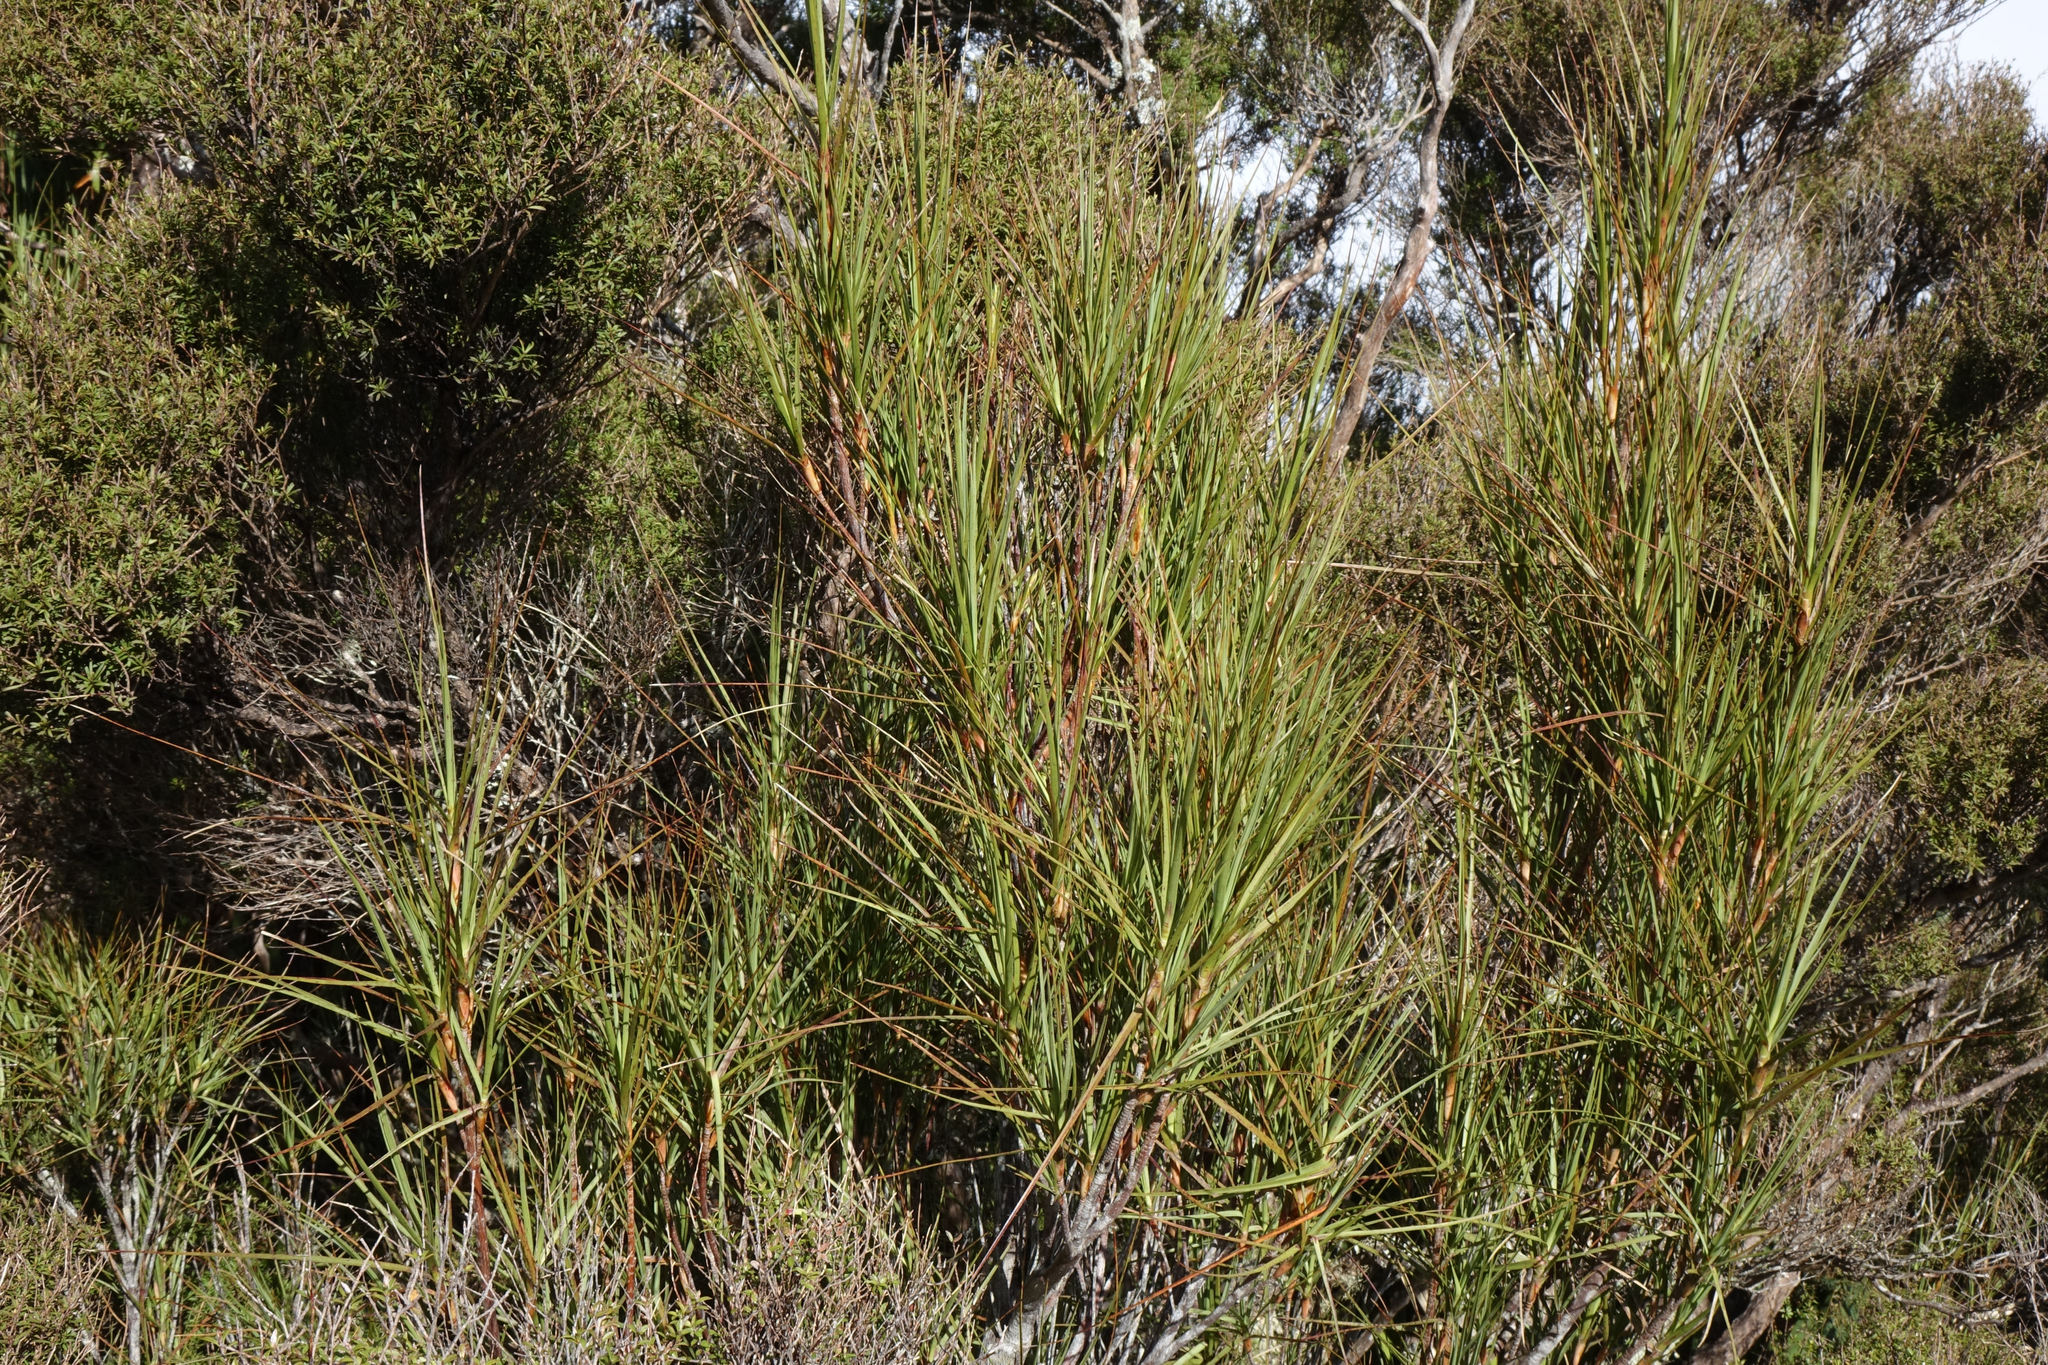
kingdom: Plantae
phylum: Tracheophyta
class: Magnoliopsida
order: Ericales
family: Ericaceae
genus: Dracophyllum
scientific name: Dracophyllum longifolium
